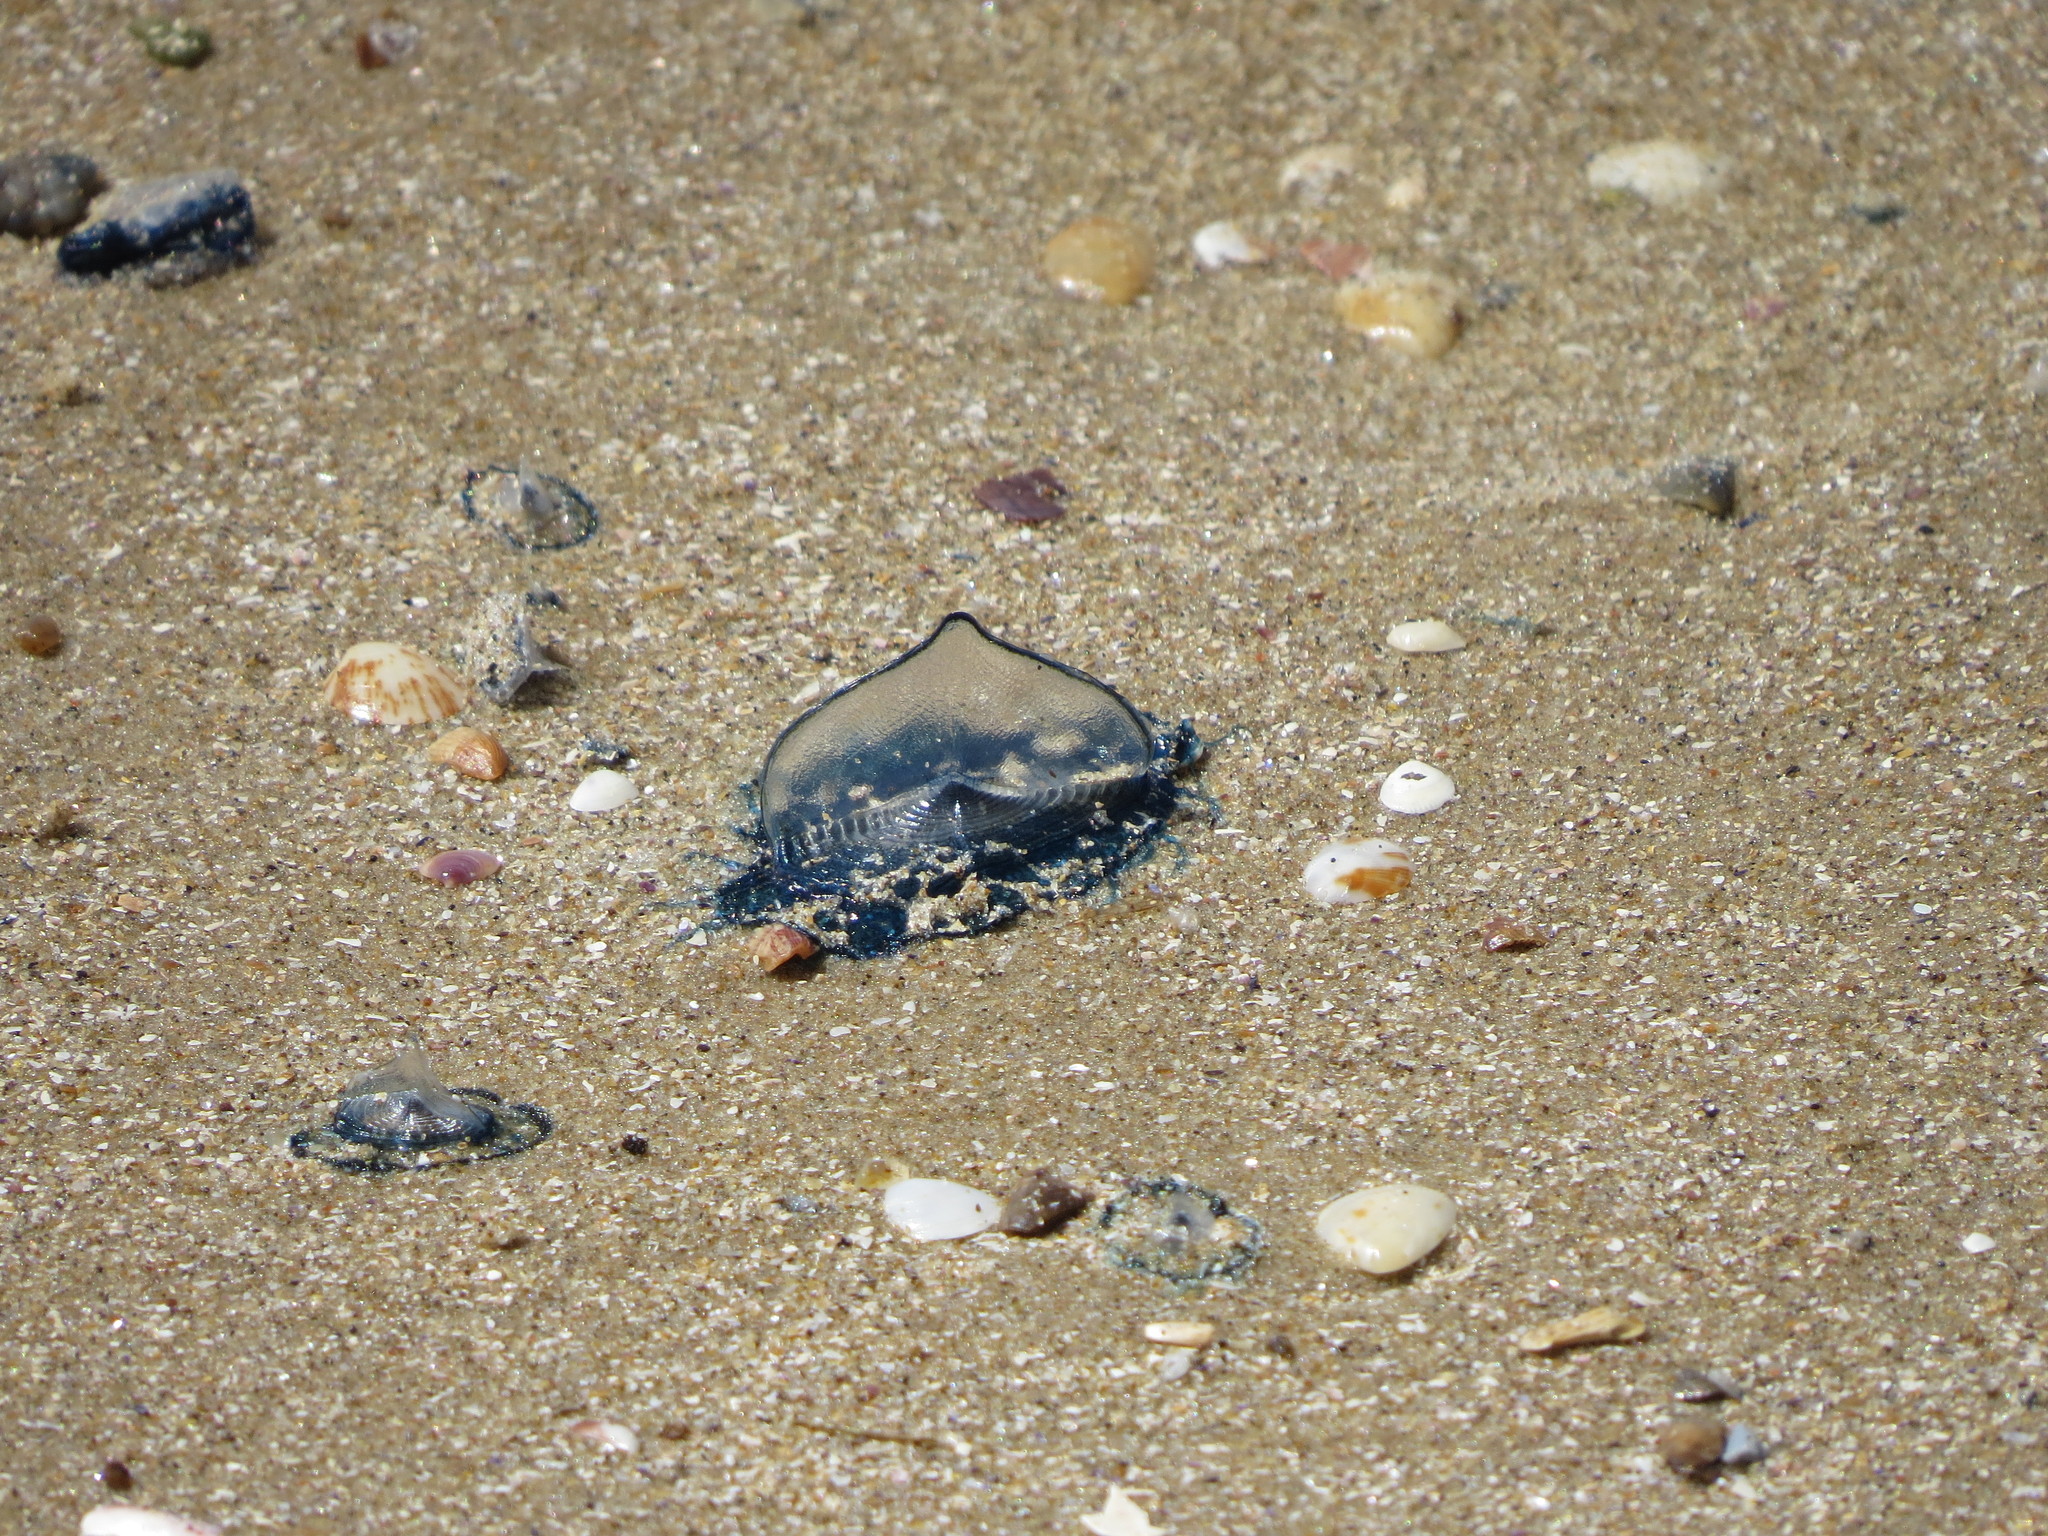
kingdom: Animalia
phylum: Cnidaria
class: Hydrozoa
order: Anthoathecata
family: Porpitidae
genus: Velella
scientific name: Velella velella
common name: By-the-wind-sailor
